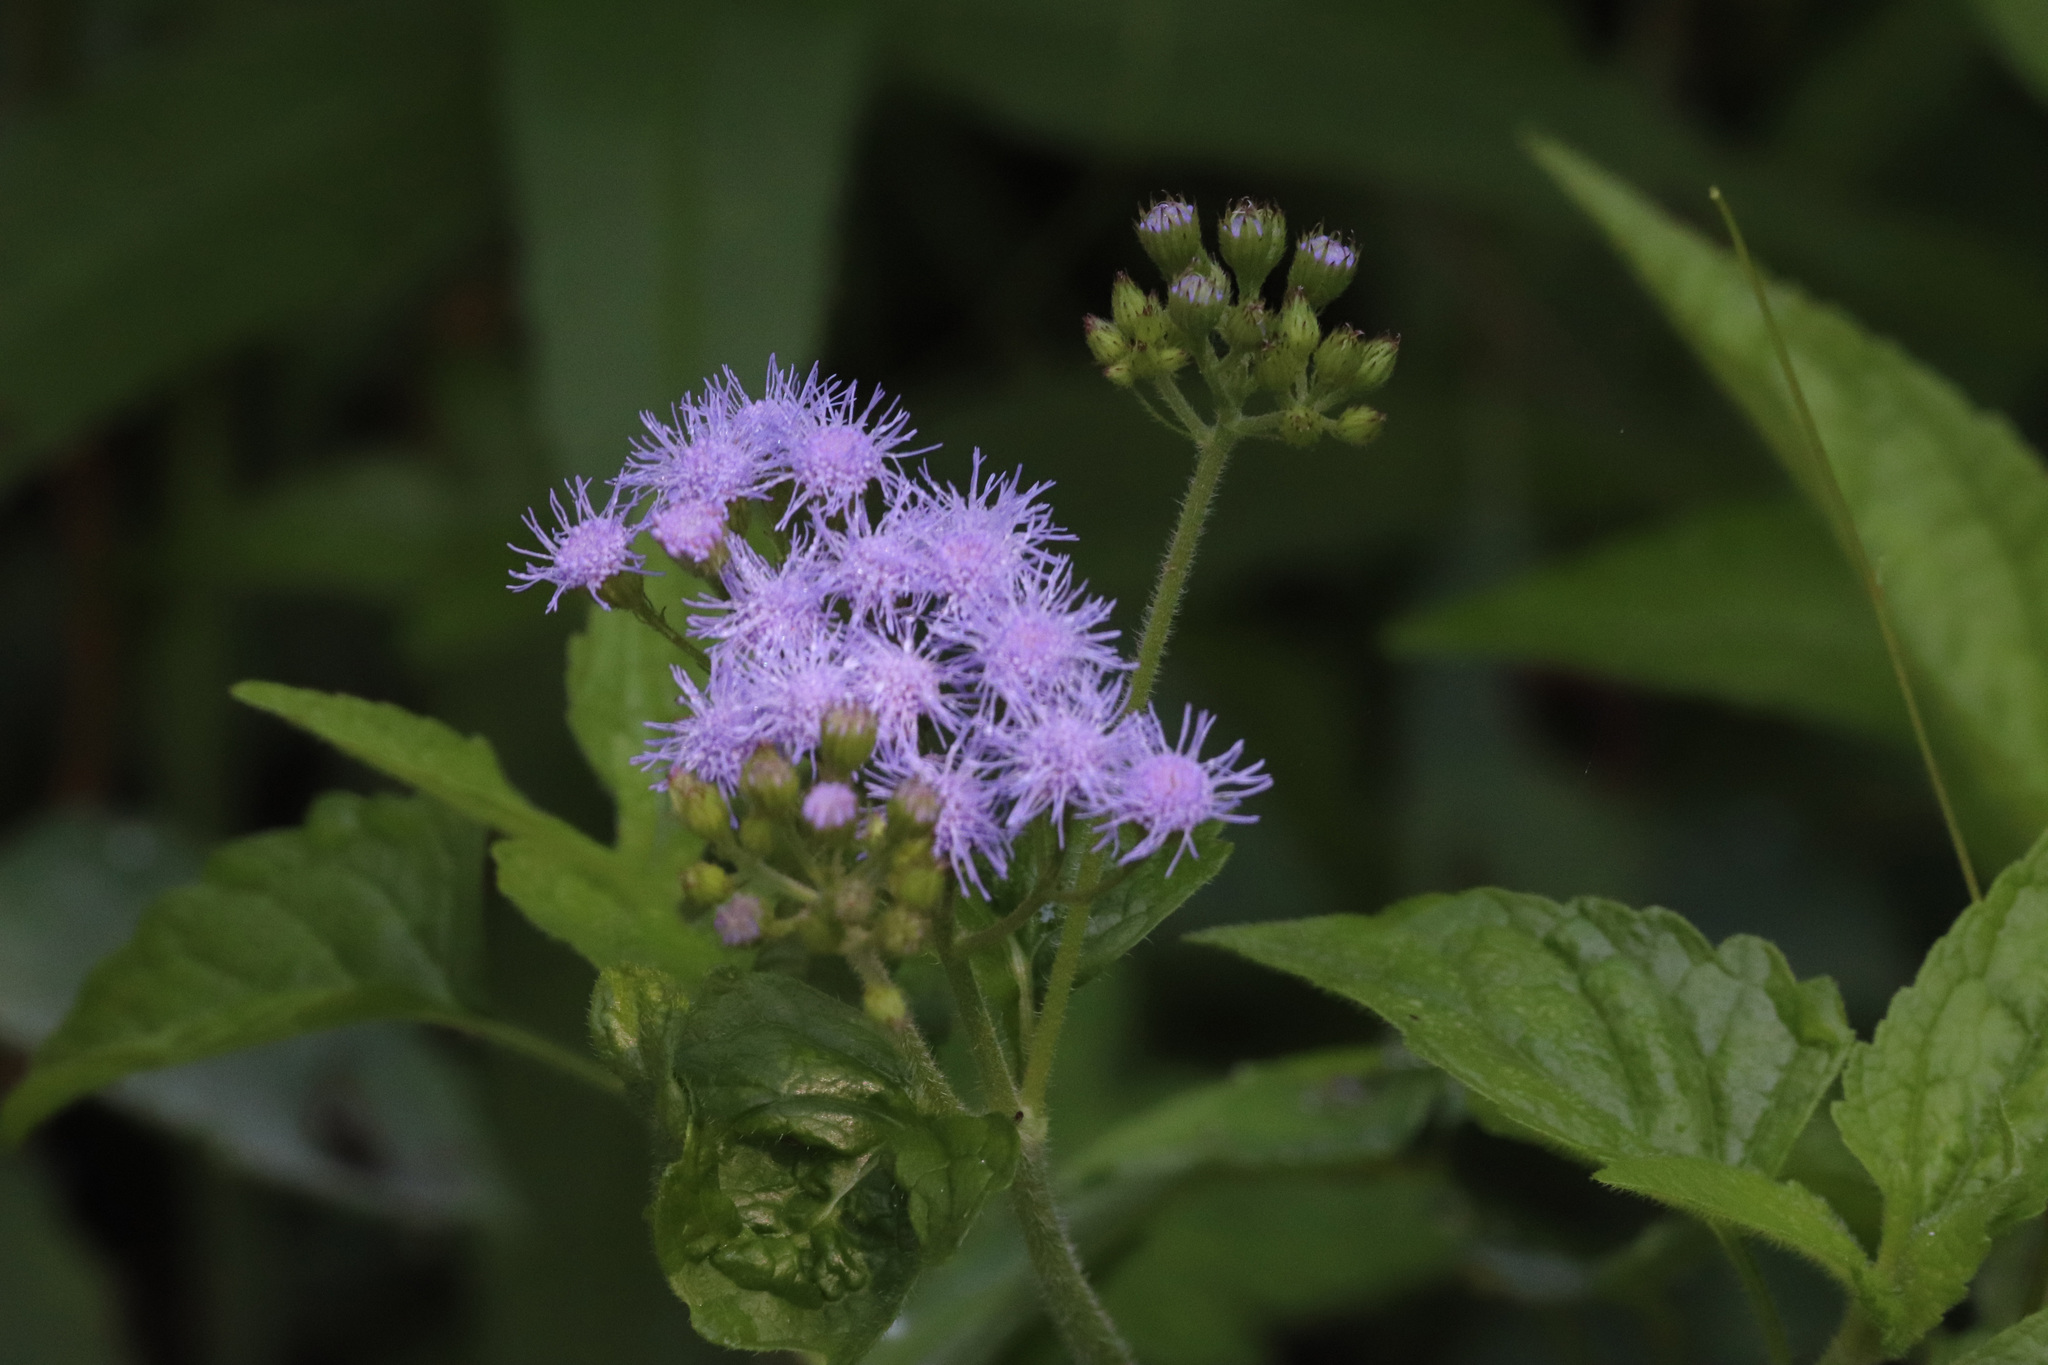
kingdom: Plantae
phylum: Tracheophyta
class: Magnoliopsida
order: Asterales
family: Asteraceae
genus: Conoclinium
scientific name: Conoclinium coelestinum
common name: Blue mistflower
